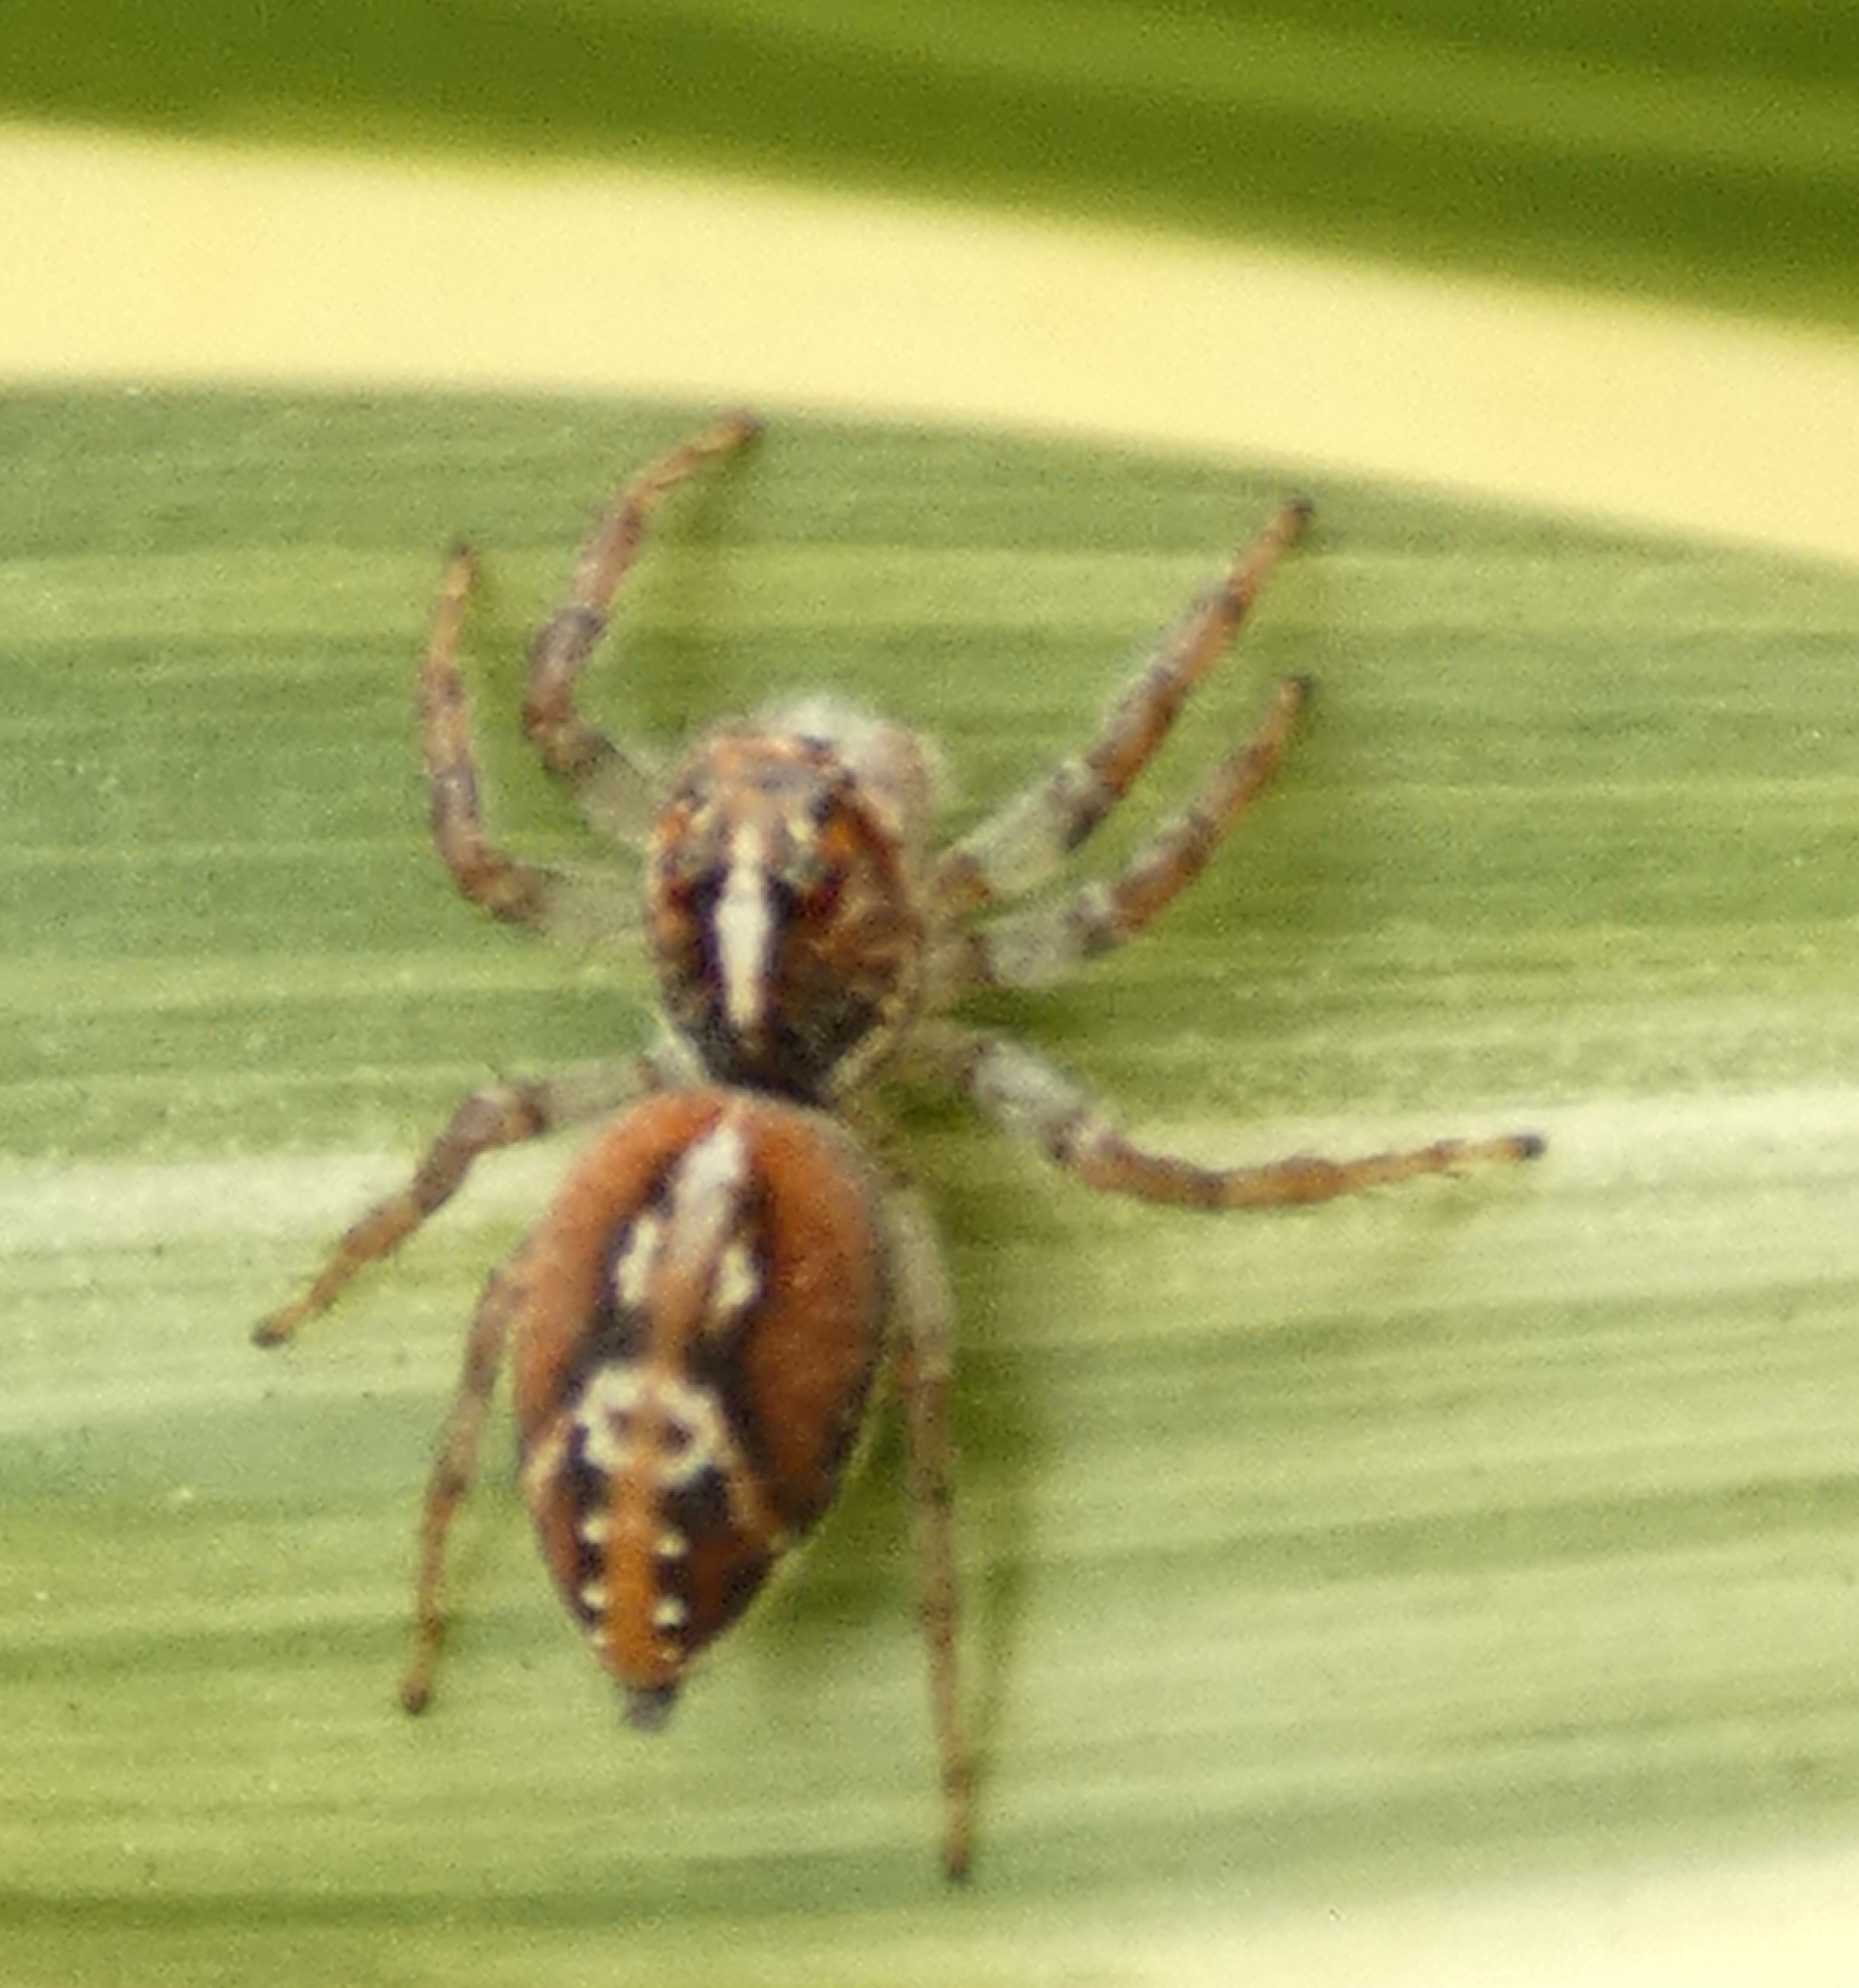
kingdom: Animalia
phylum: Arthropoda
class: Arachnida
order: Araneae
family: Salticidae
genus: Frigga
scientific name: Frigga coronigera
